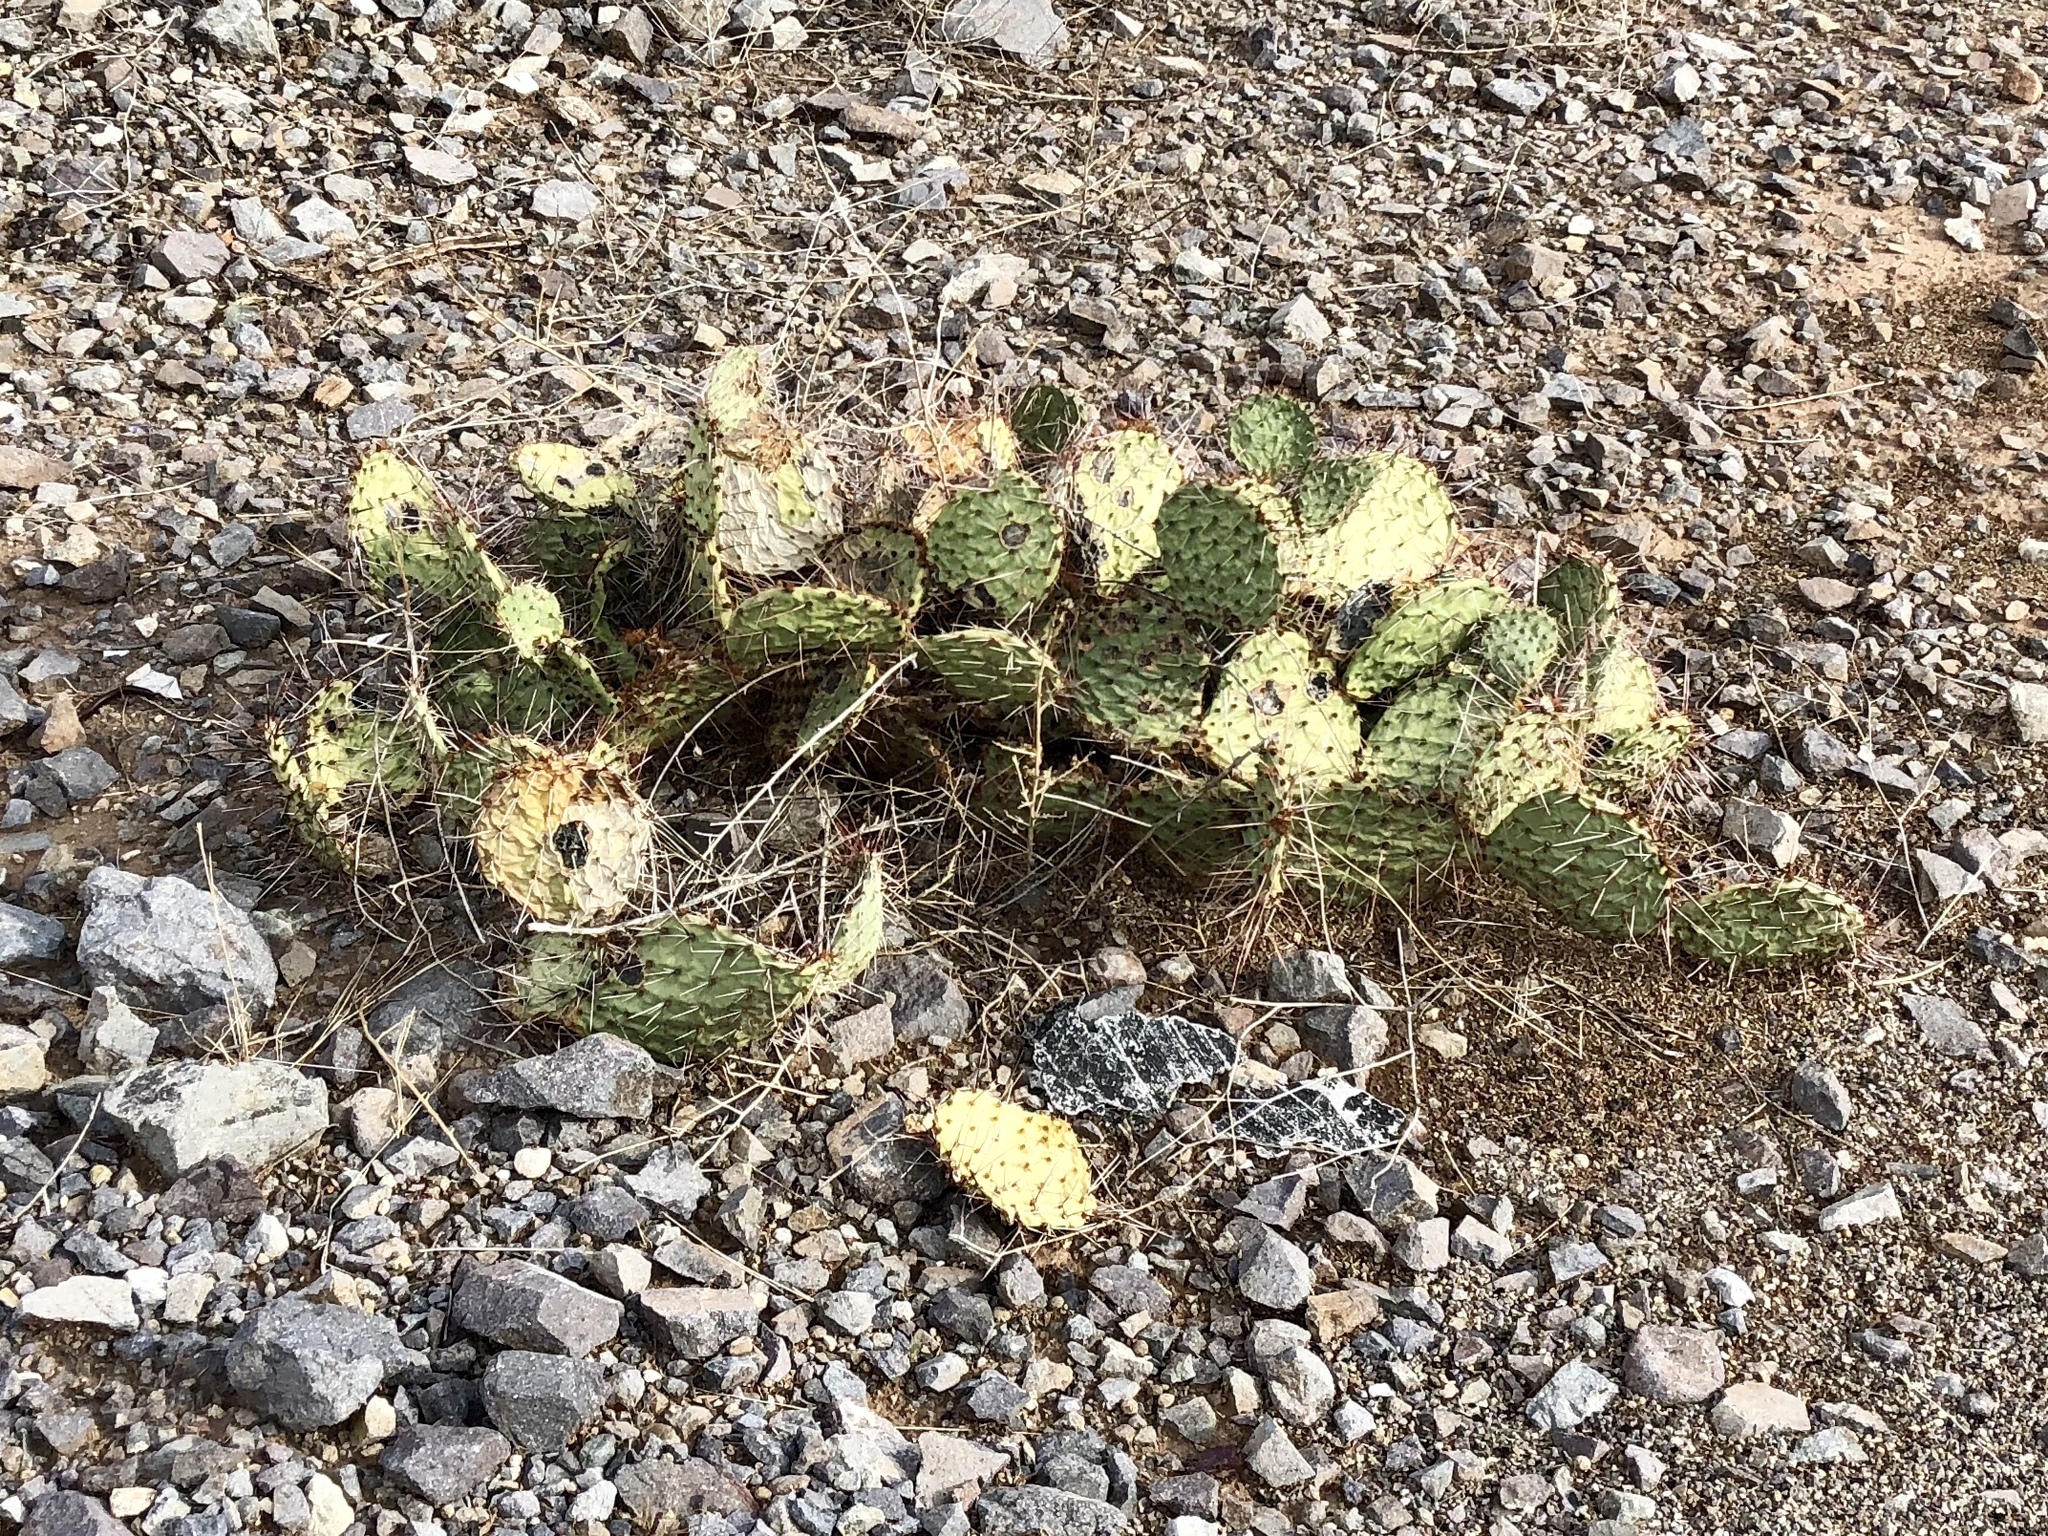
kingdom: Plantae
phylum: Tracheophyta
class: Magnoliopsida
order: Caryophyllales
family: Cactaceae
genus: Opuntia
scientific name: Opuntia macrorhiza
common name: Grassland pricklypear
